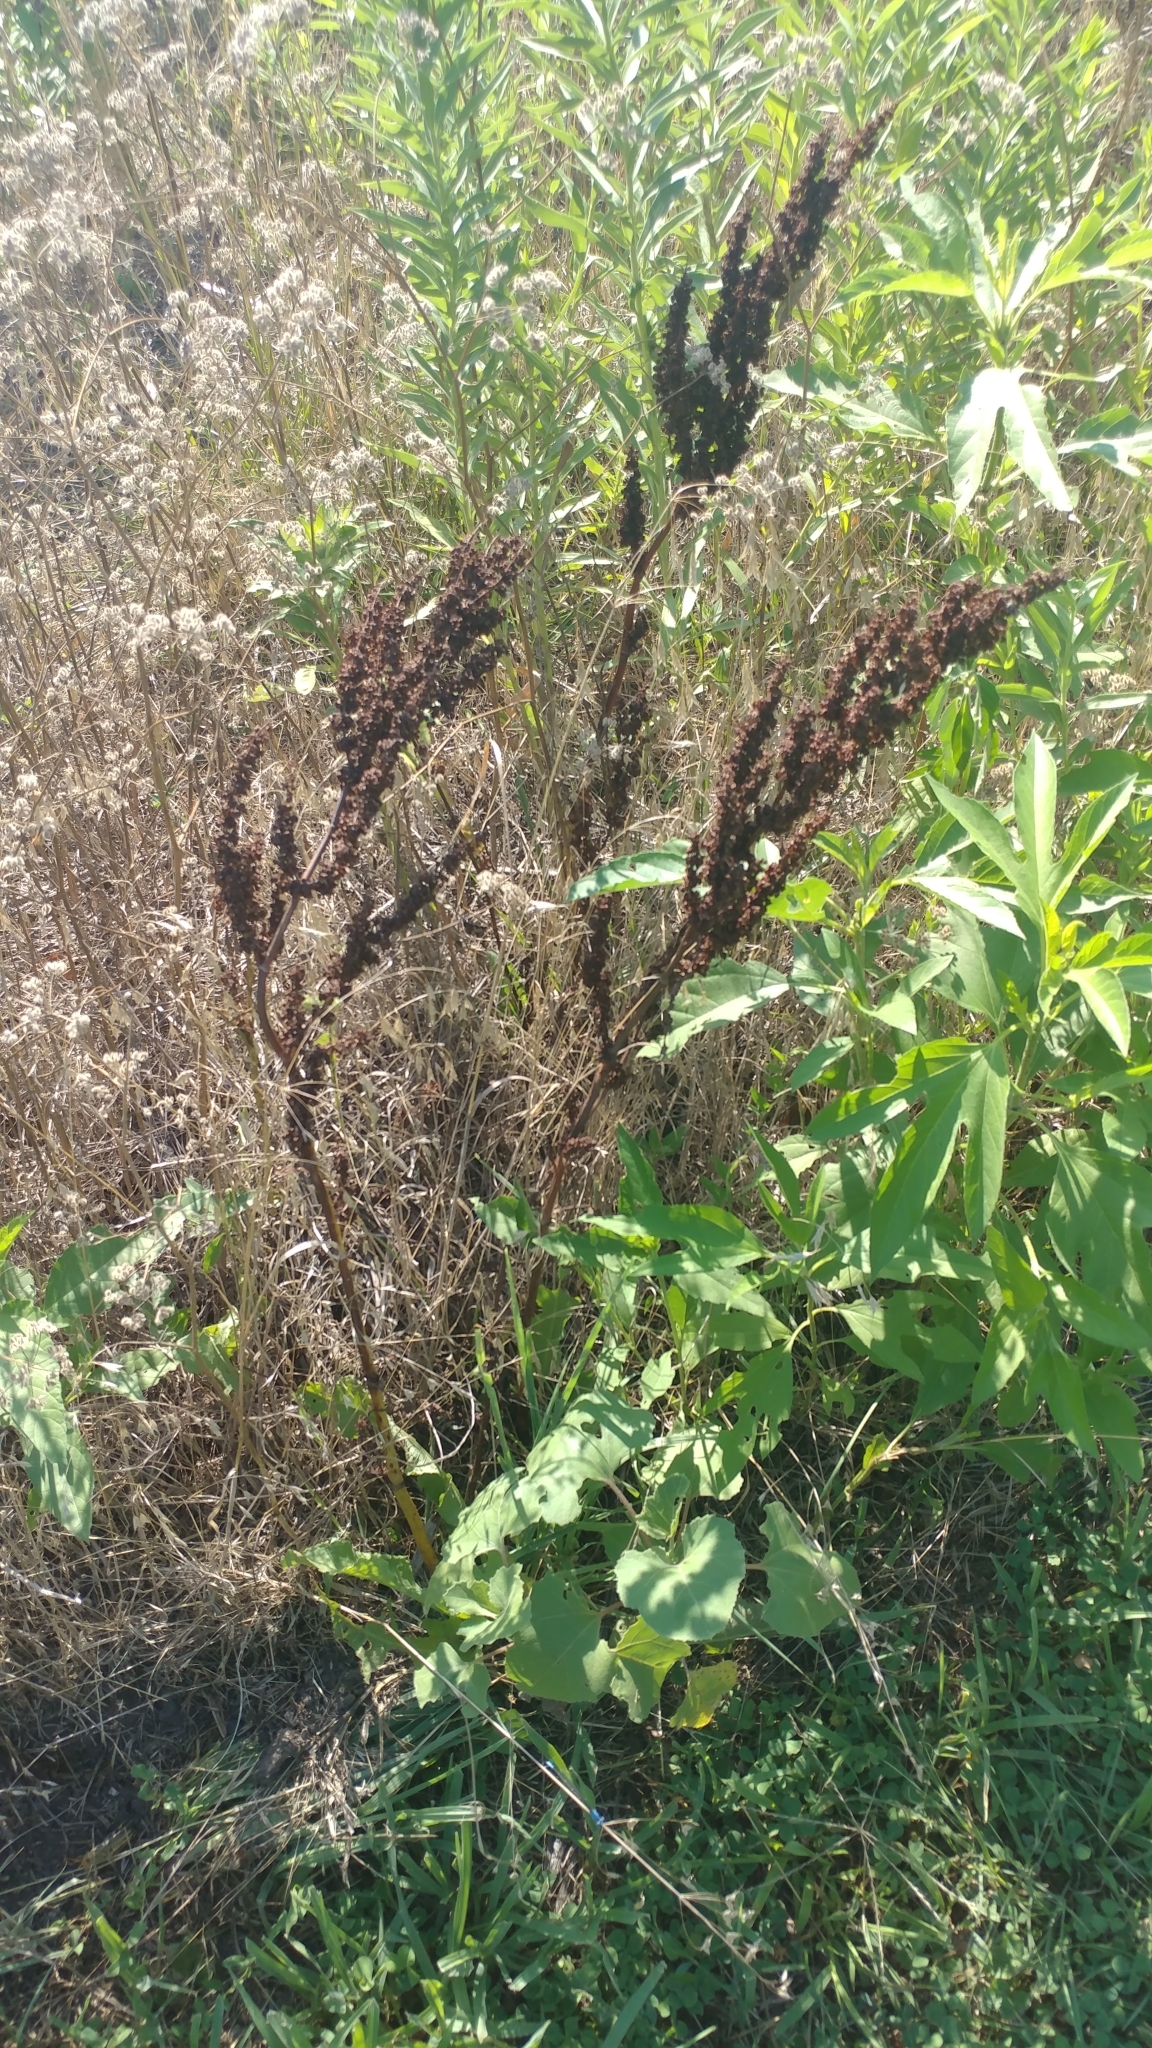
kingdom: Plantae
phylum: Tracheophyta
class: Magnoliopsida
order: Caryophyllales
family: Polygonaceae
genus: Rumex
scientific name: Rumex crispus
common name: Curled dock
